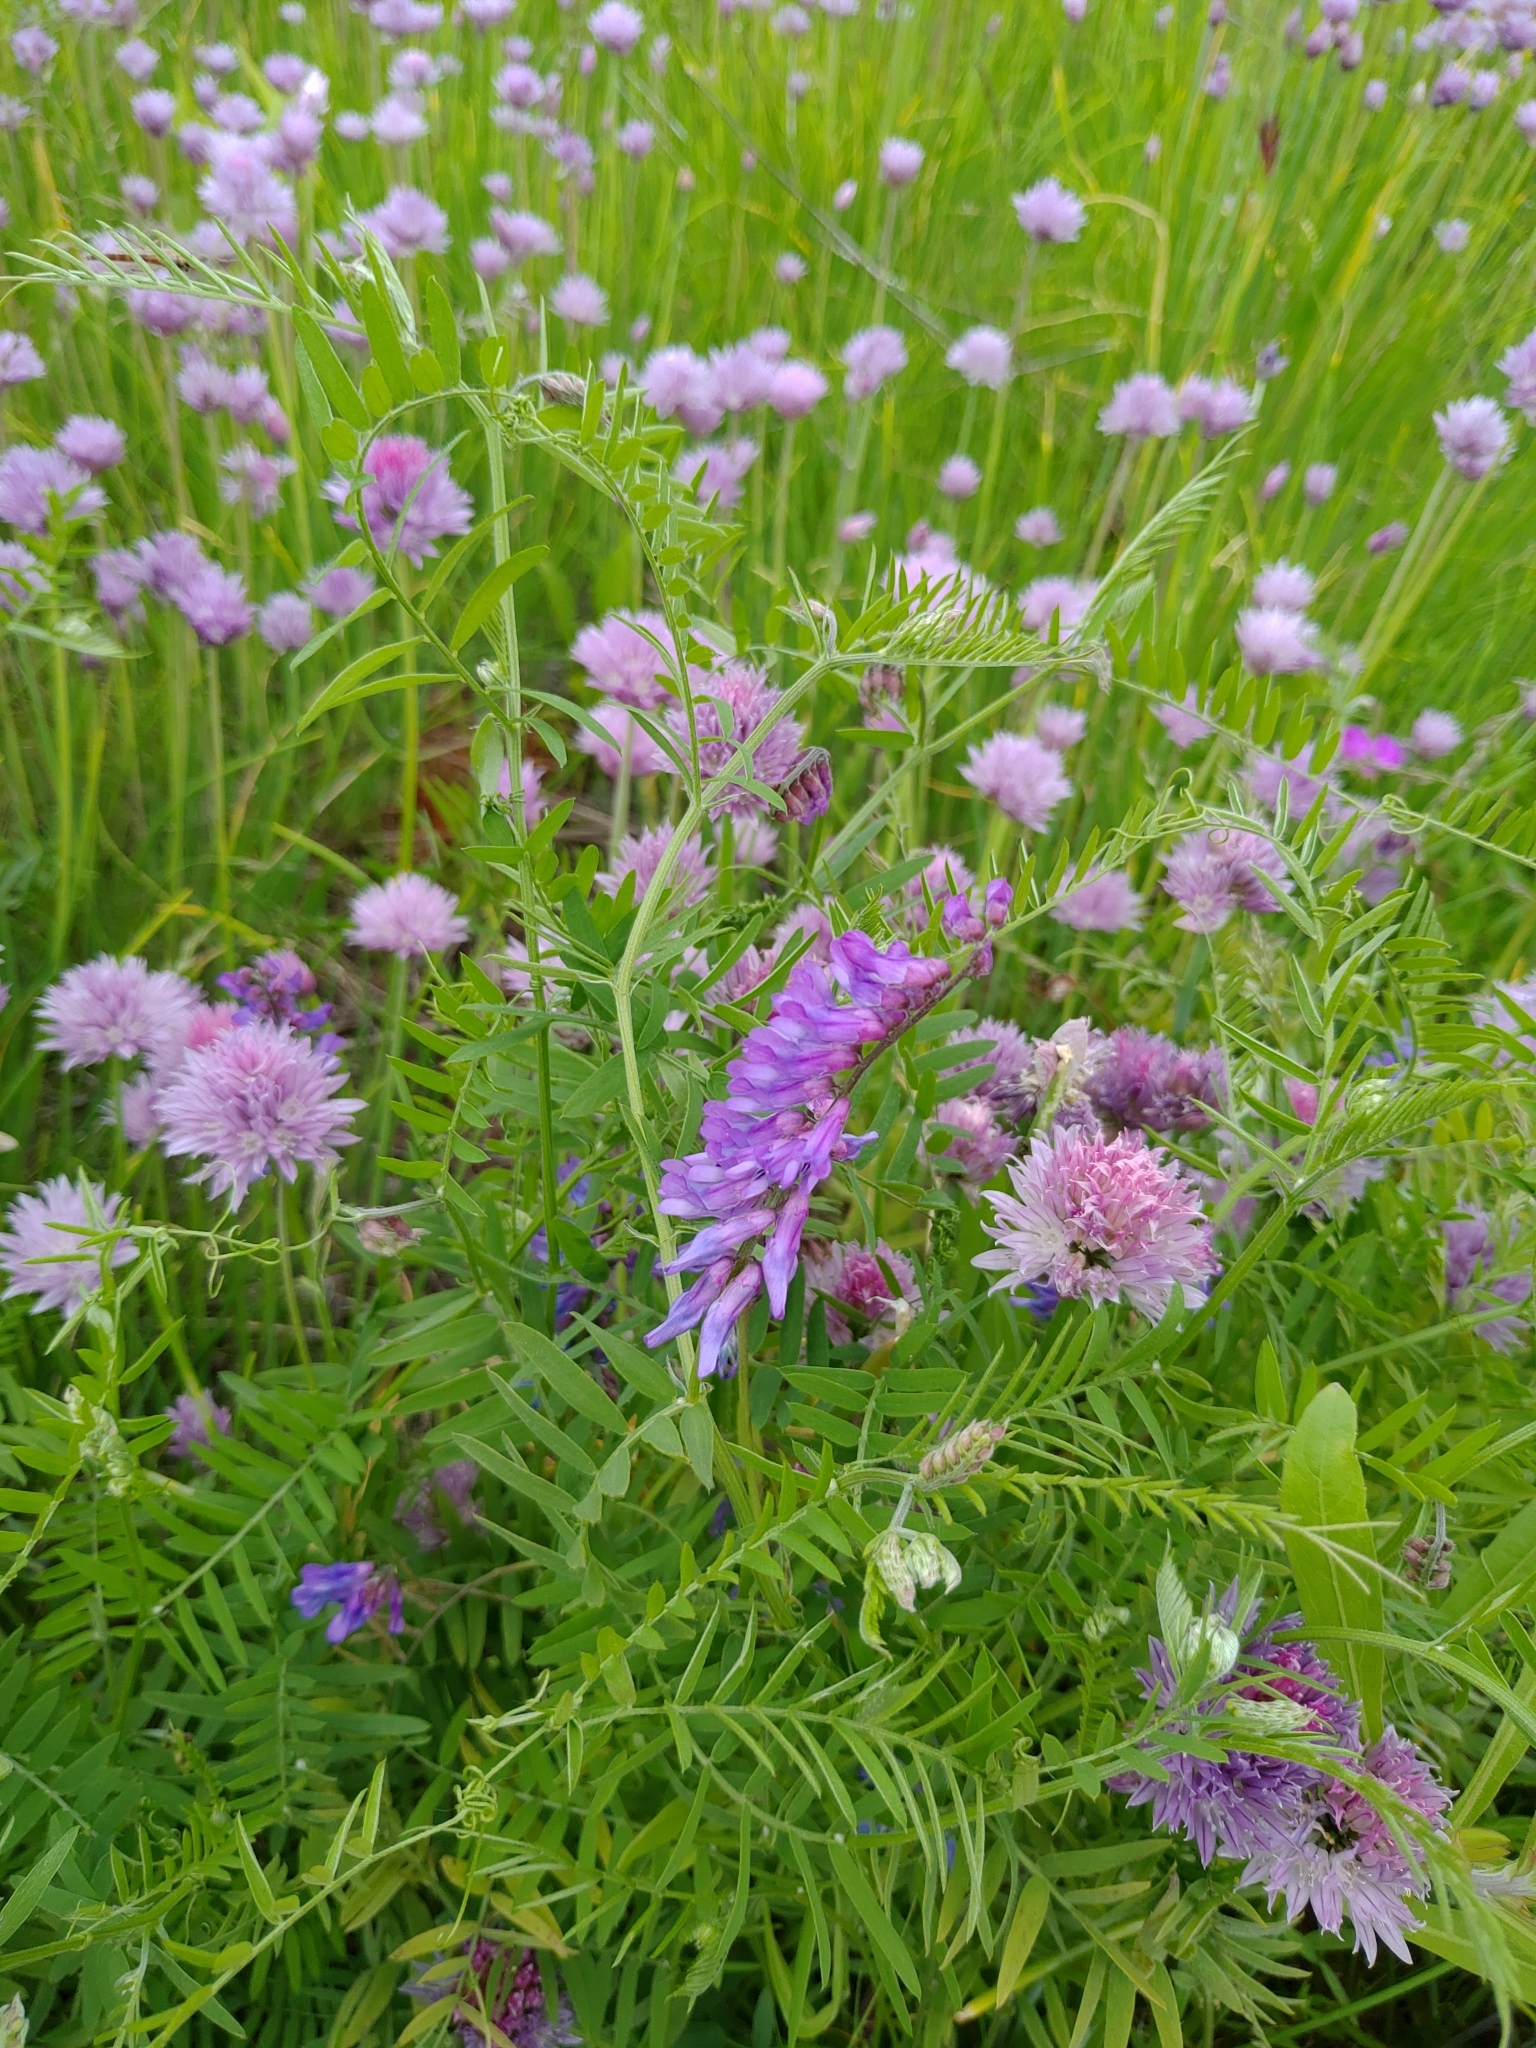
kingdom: Plantae
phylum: Tracheophyta
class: Magnoliopsida
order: Fabales
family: Fabaceae
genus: Vicia
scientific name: Vicia cracca
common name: Bird vetch
